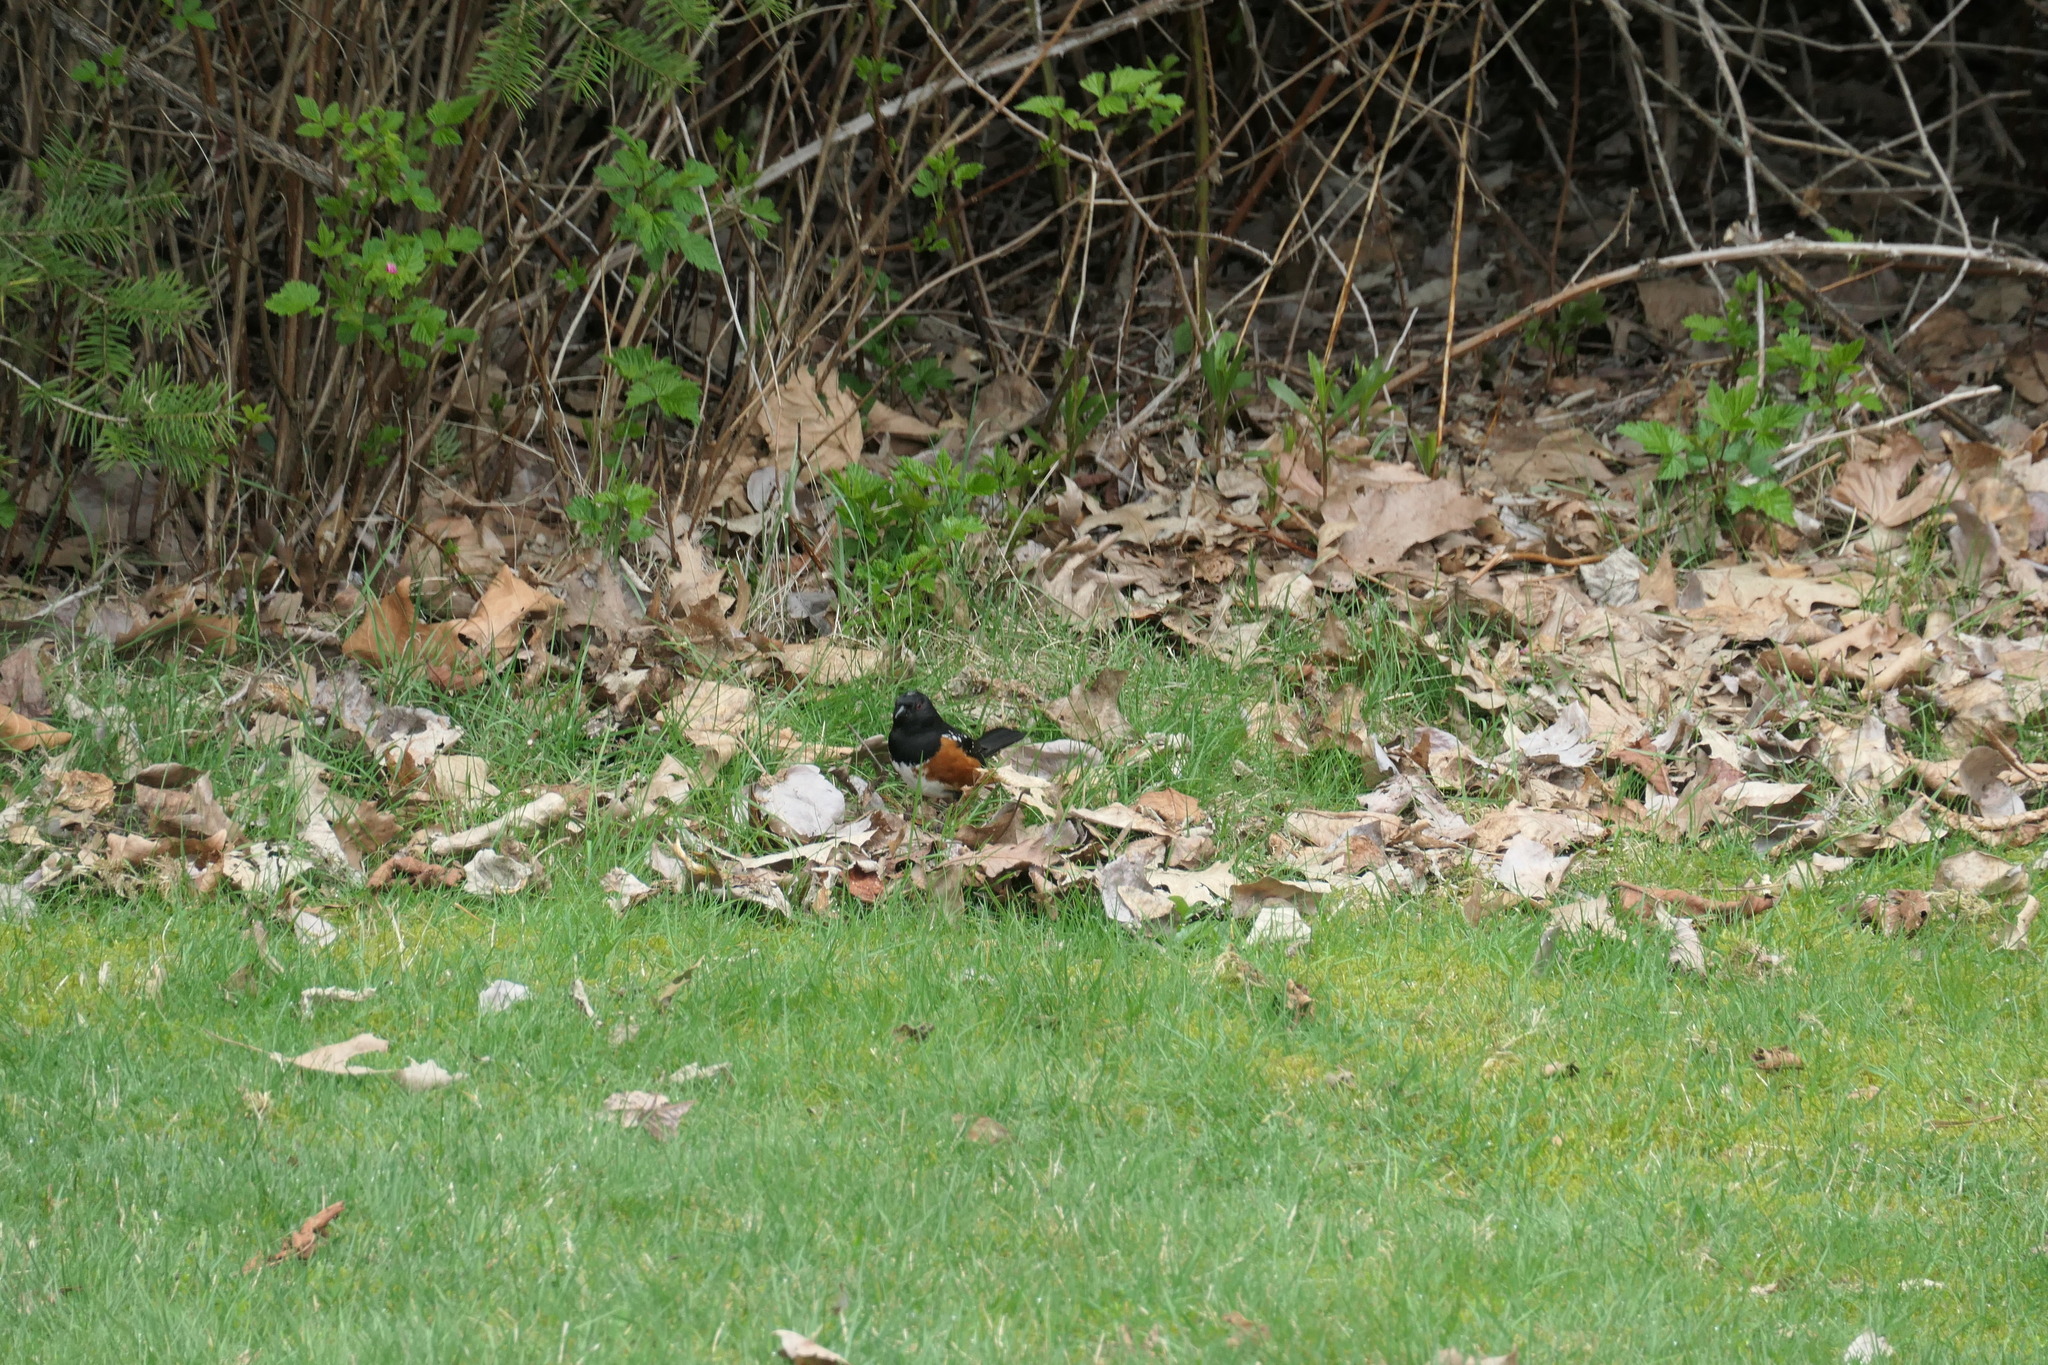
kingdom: Animalia
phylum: Chordata
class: Aves
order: Passeriformes
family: Passerellidae
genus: Pipilo
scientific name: Pipilo maculatus
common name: Spotted towhee
